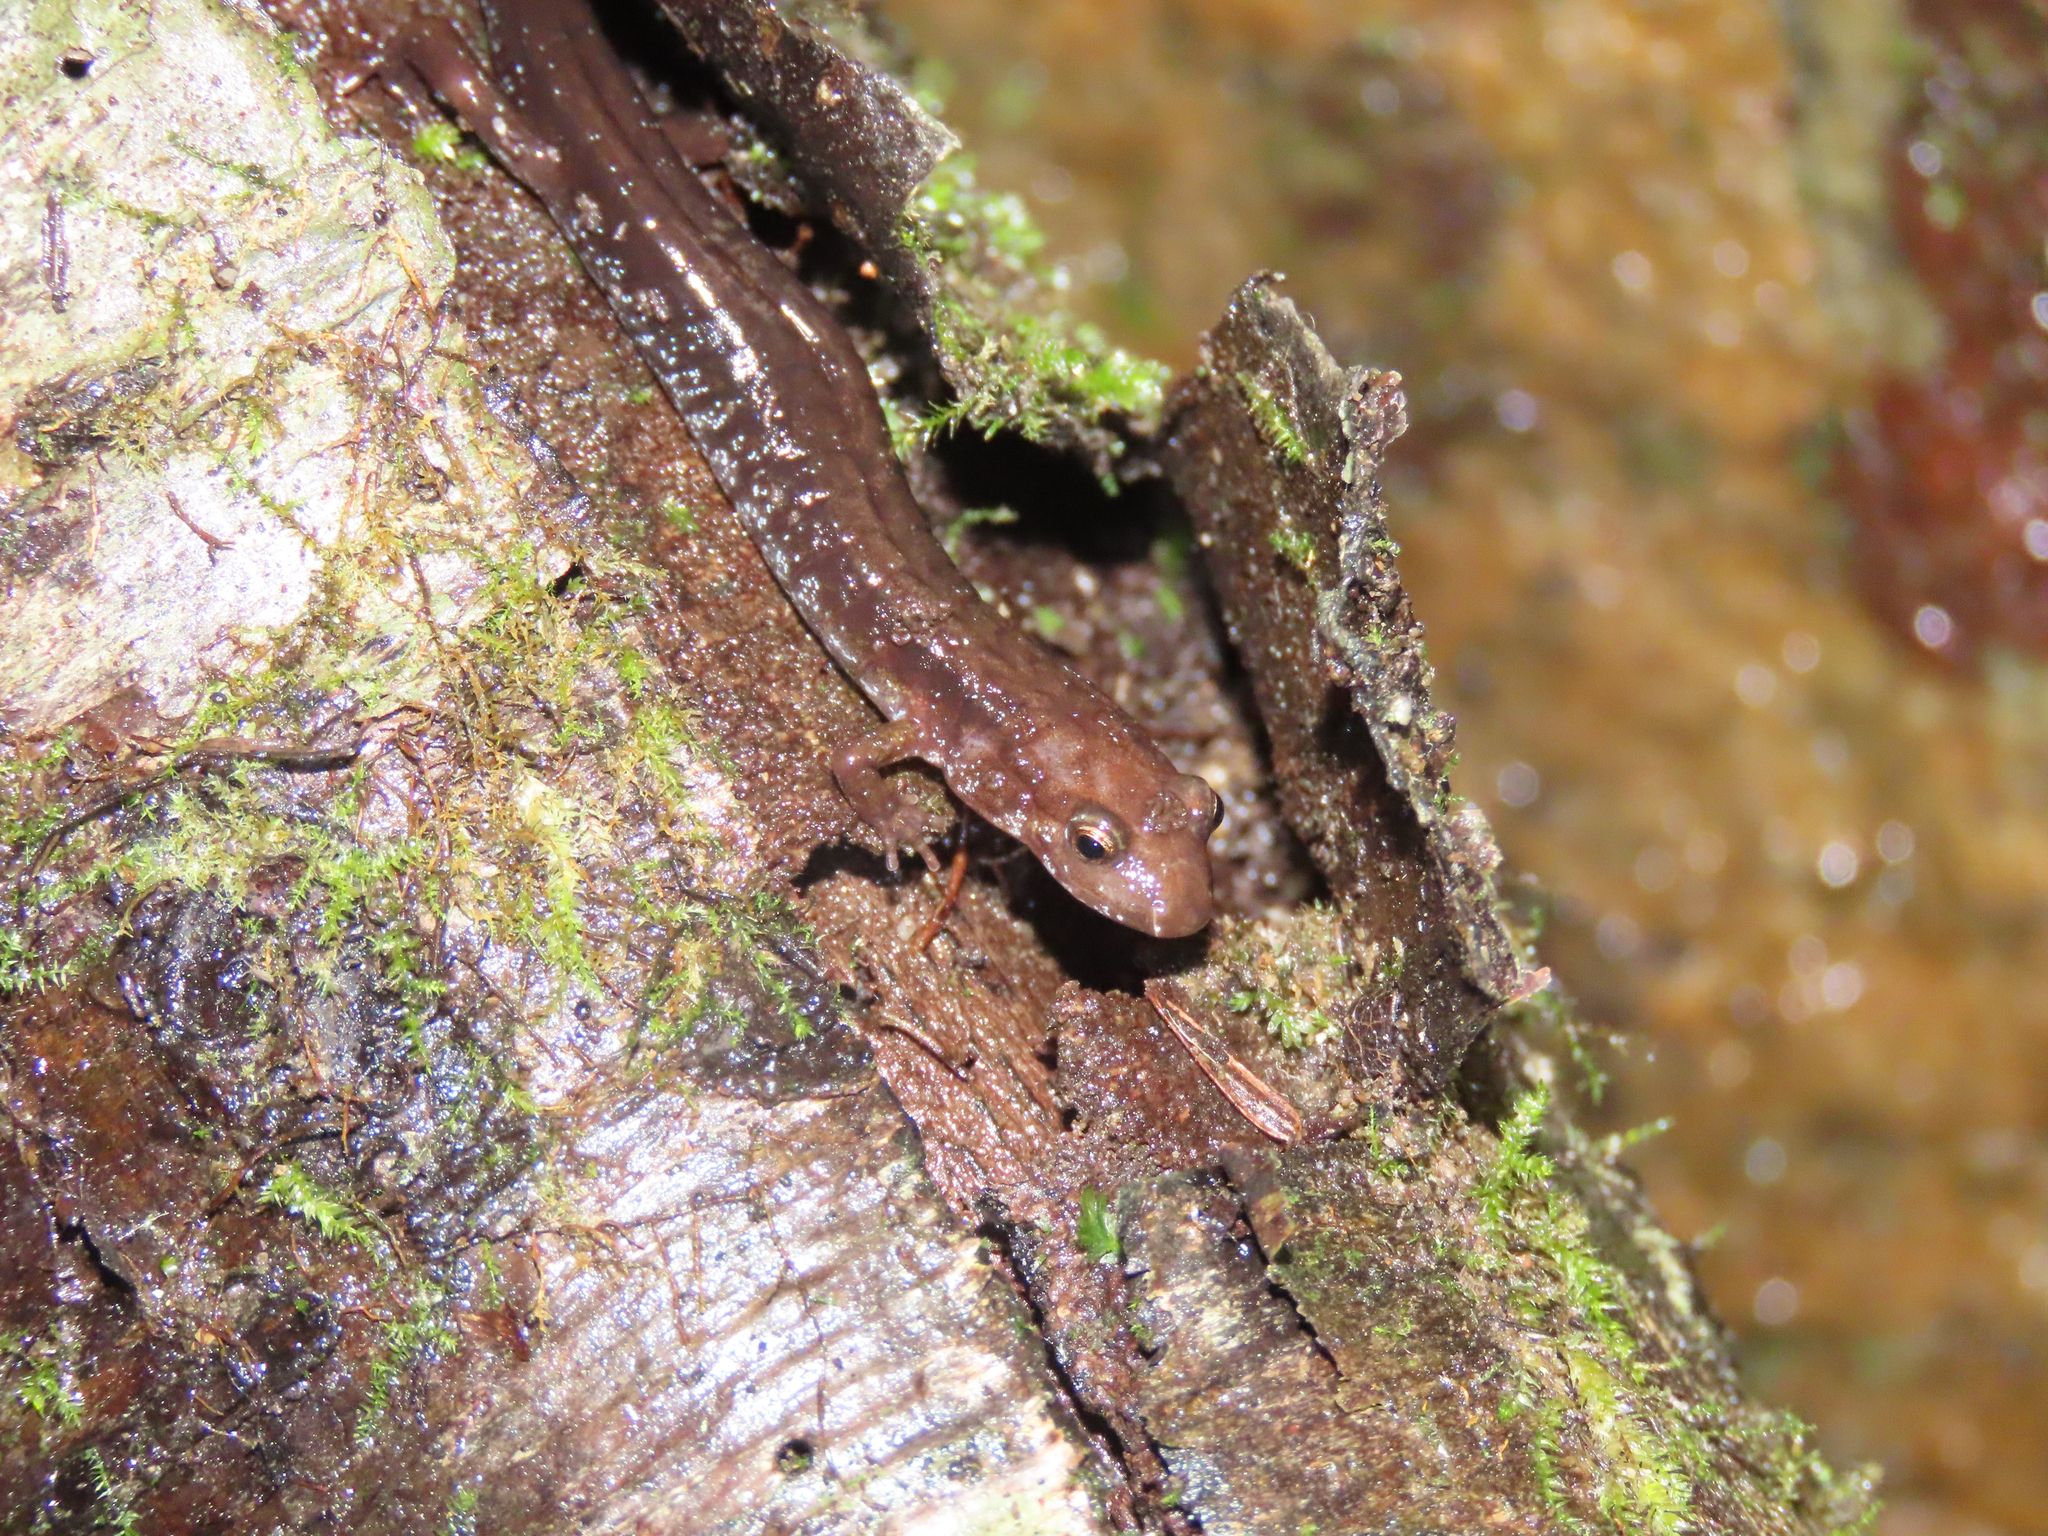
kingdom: Animalia
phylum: Chordata
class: Amphibia
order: Caudata
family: Plethodontidae
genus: Desmognathus
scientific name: Desmognathus ochrophaeus
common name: Allegheny mountain dusky salamander
